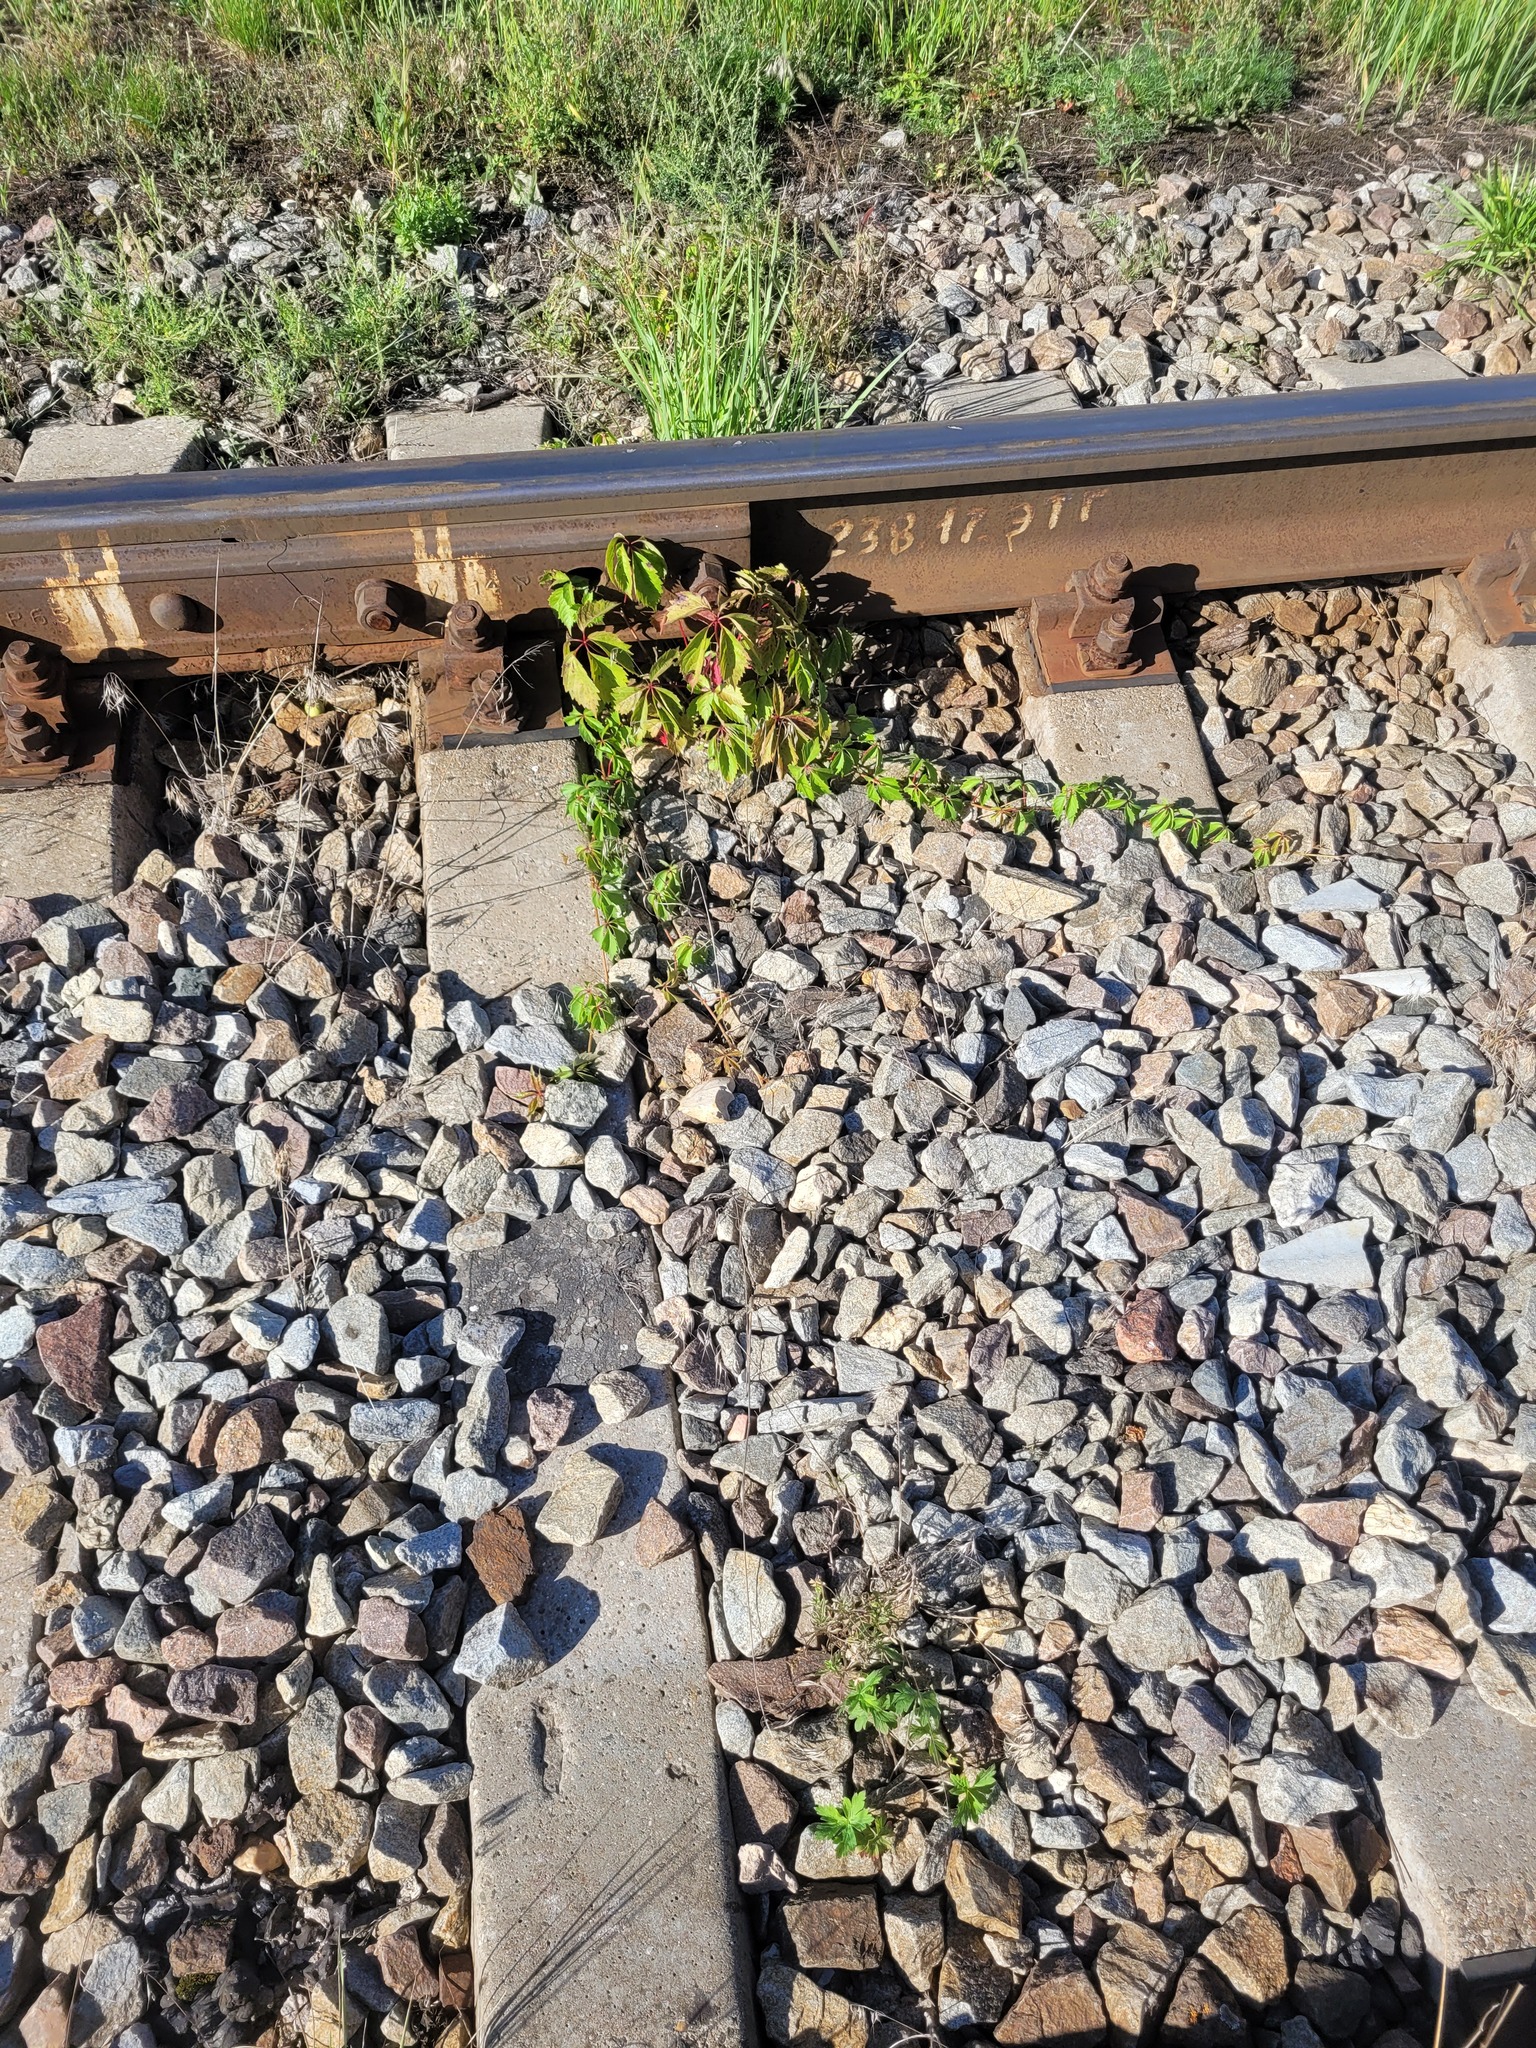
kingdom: Plantae
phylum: Tracheophyta
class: Magnoliopsida
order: Vitales
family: Vitaceae
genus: Parthenocissus
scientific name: Parthenocissus inserta
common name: False virginia-creeper
